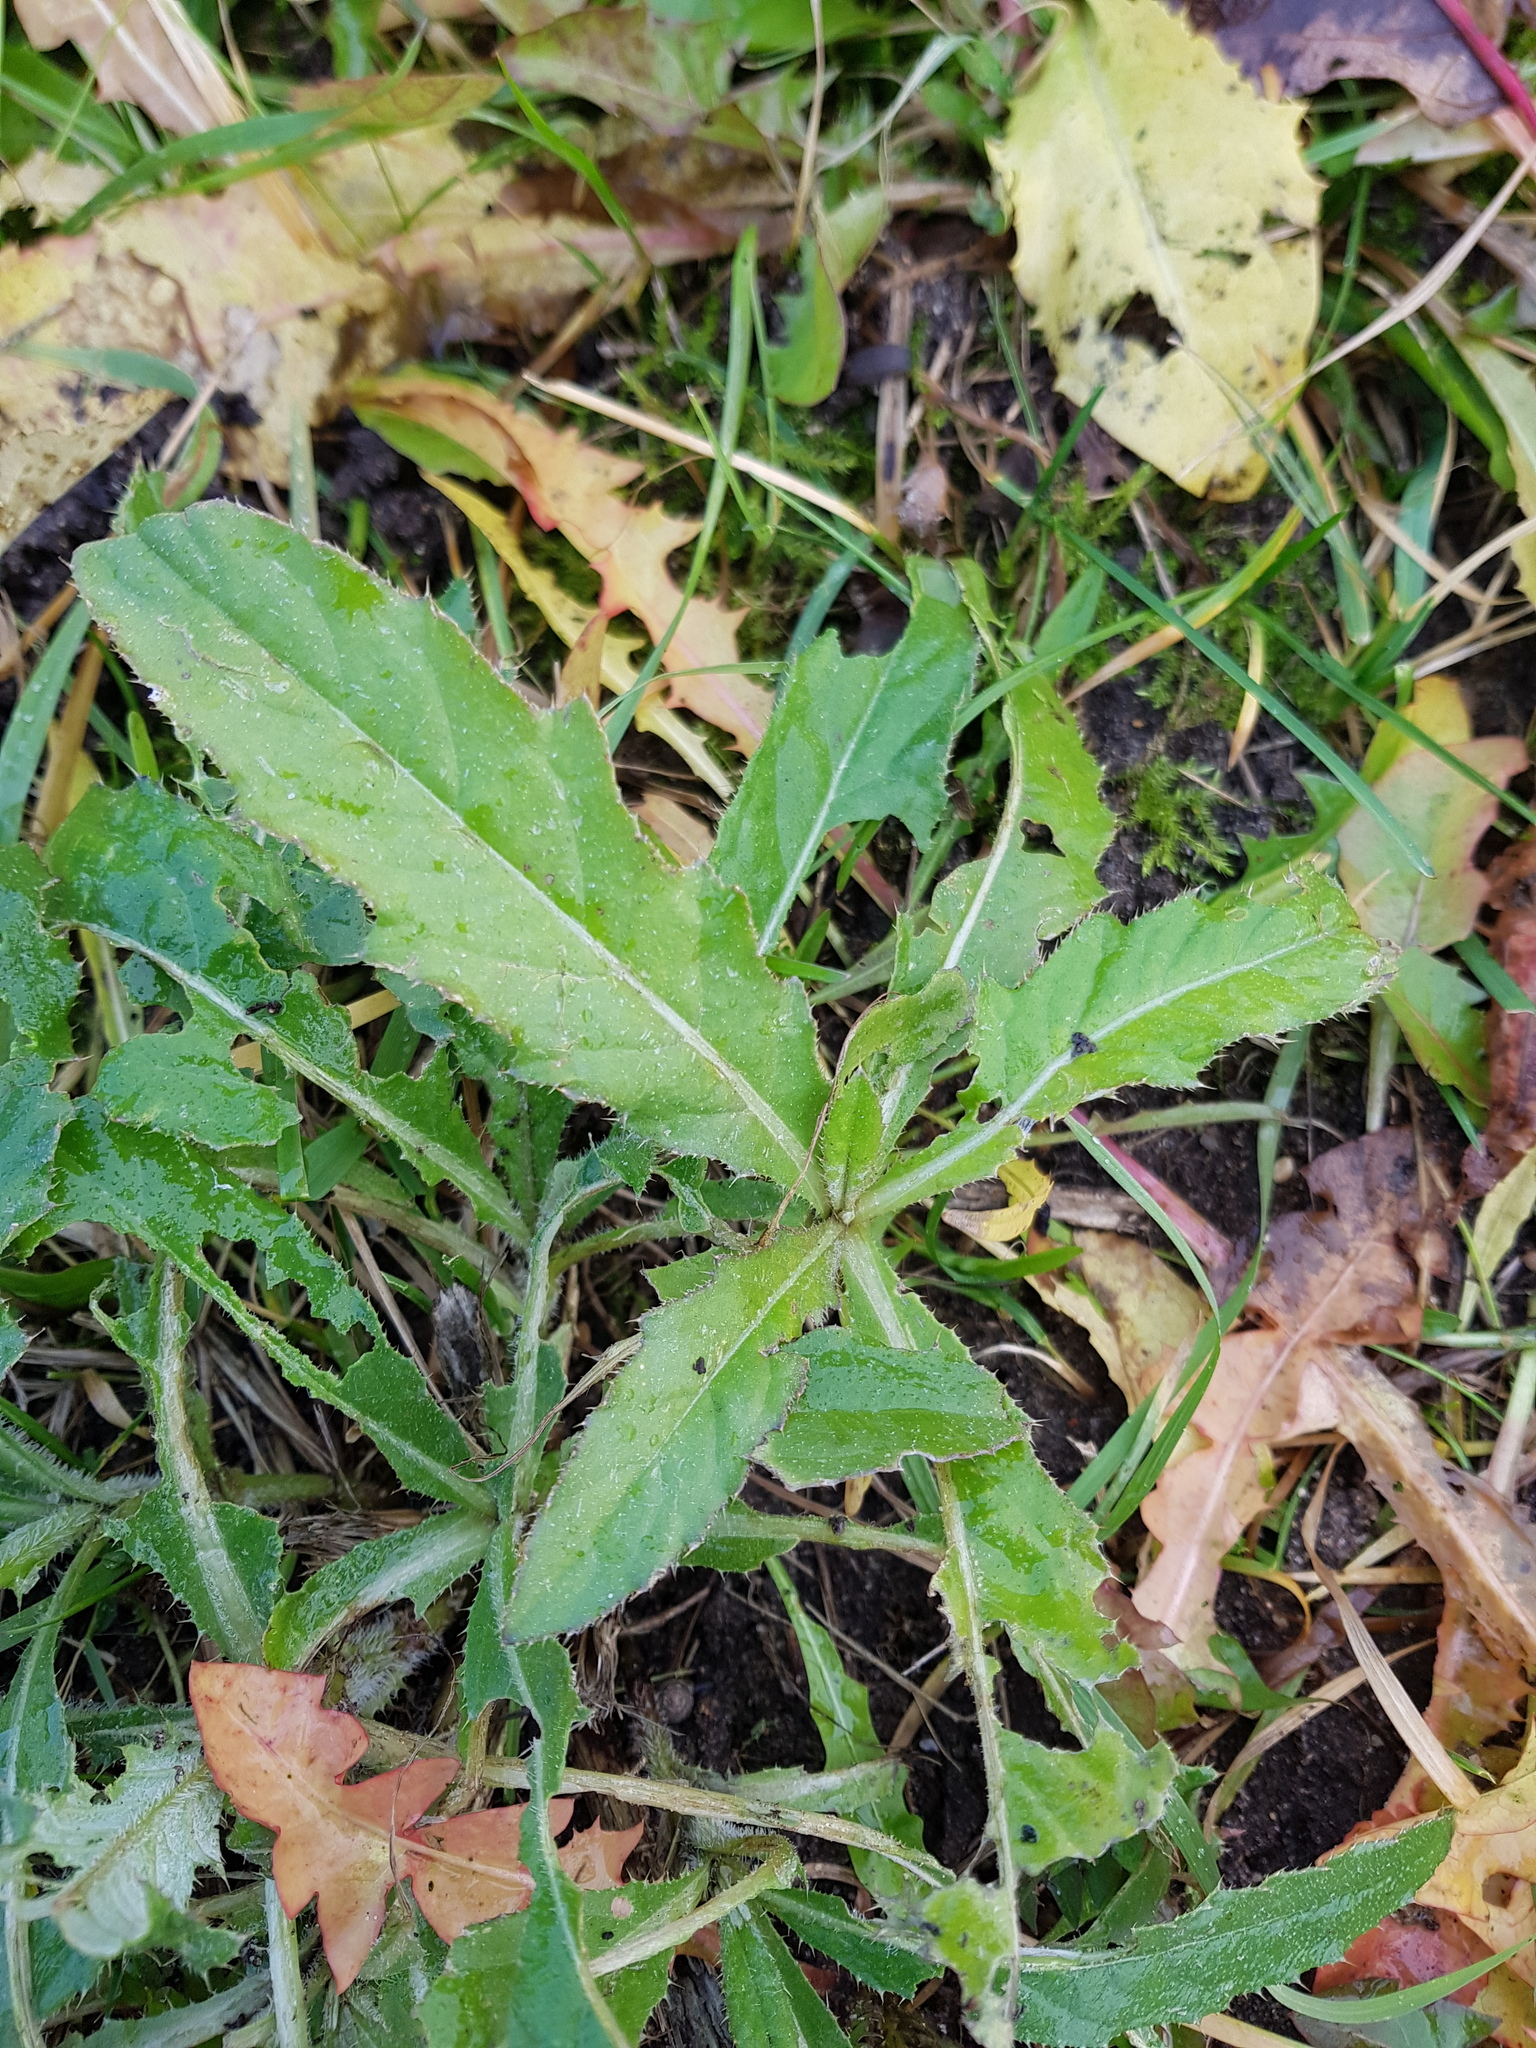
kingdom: Plantae
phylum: Tracheophyta
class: Magnoliopsida
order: Asterales
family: Asteraceae
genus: Cirsium
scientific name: Cirsium arvense
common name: Creeping thistle
